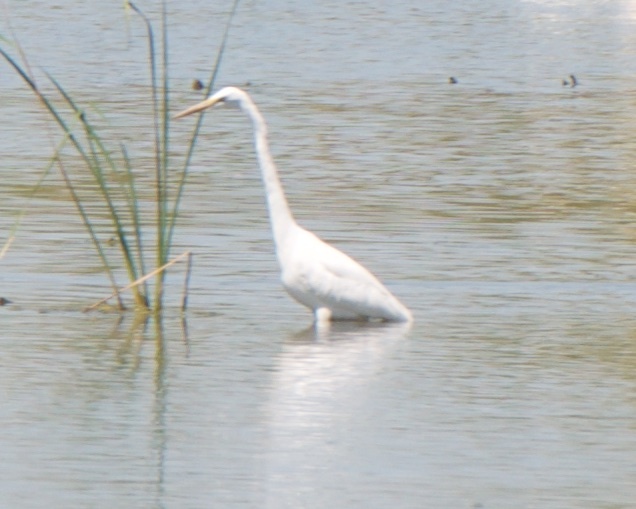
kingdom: Animalia
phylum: Chordata
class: Aves
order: Pelecaniformes
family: Ardeidae
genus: Ardea
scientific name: Ardea alba
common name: Great egret
